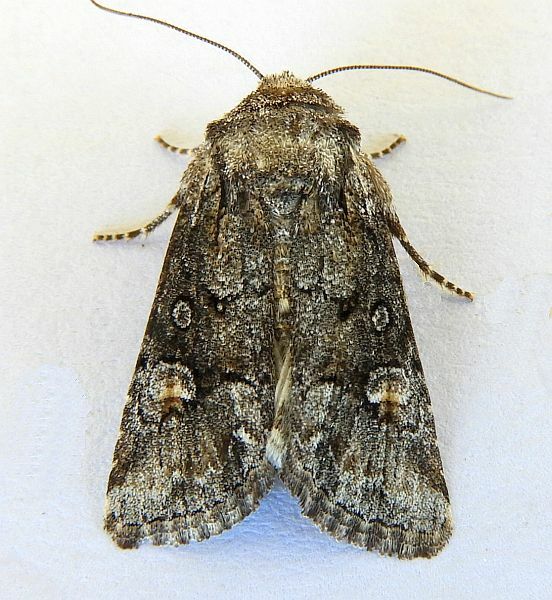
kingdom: Animalia
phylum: Arthropoda
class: Insecta
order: Lepidoptera
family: Noctuidae
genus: Lacinipolia
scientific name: Lacinipolia rodora
